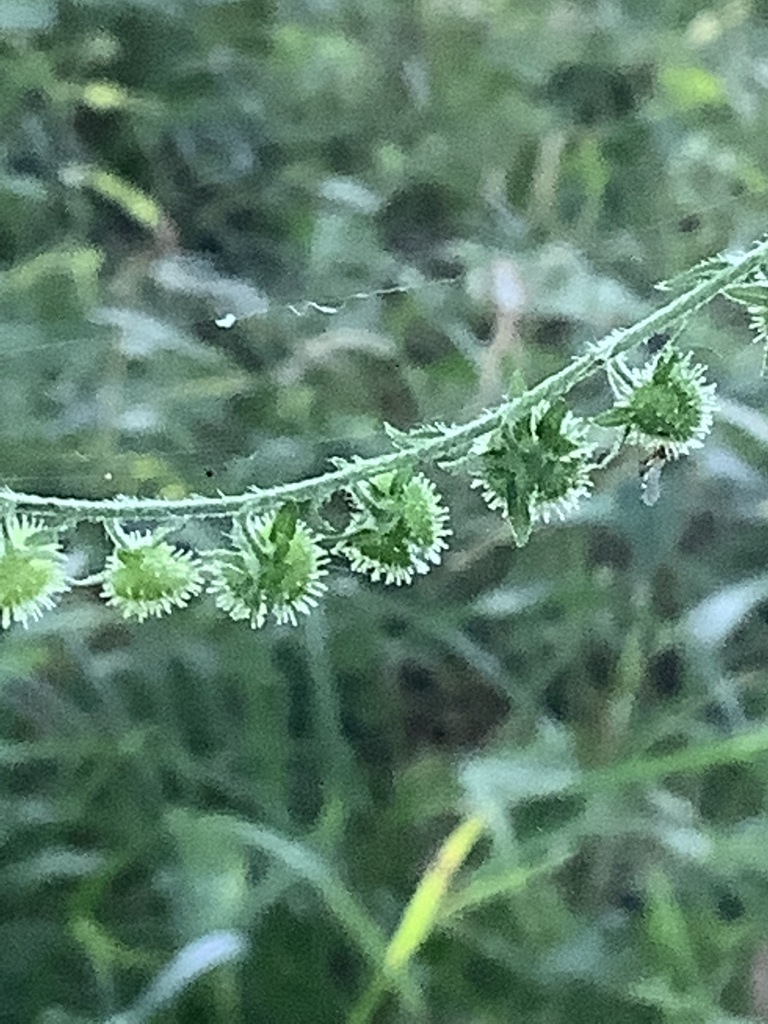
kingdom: Plantae
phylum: Tracheophyta
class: Magnoliopsida
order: Boraginales
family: Boraginaceae
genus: Hackelia
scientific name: Hackelia virginiana
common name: Beggar's-lice
